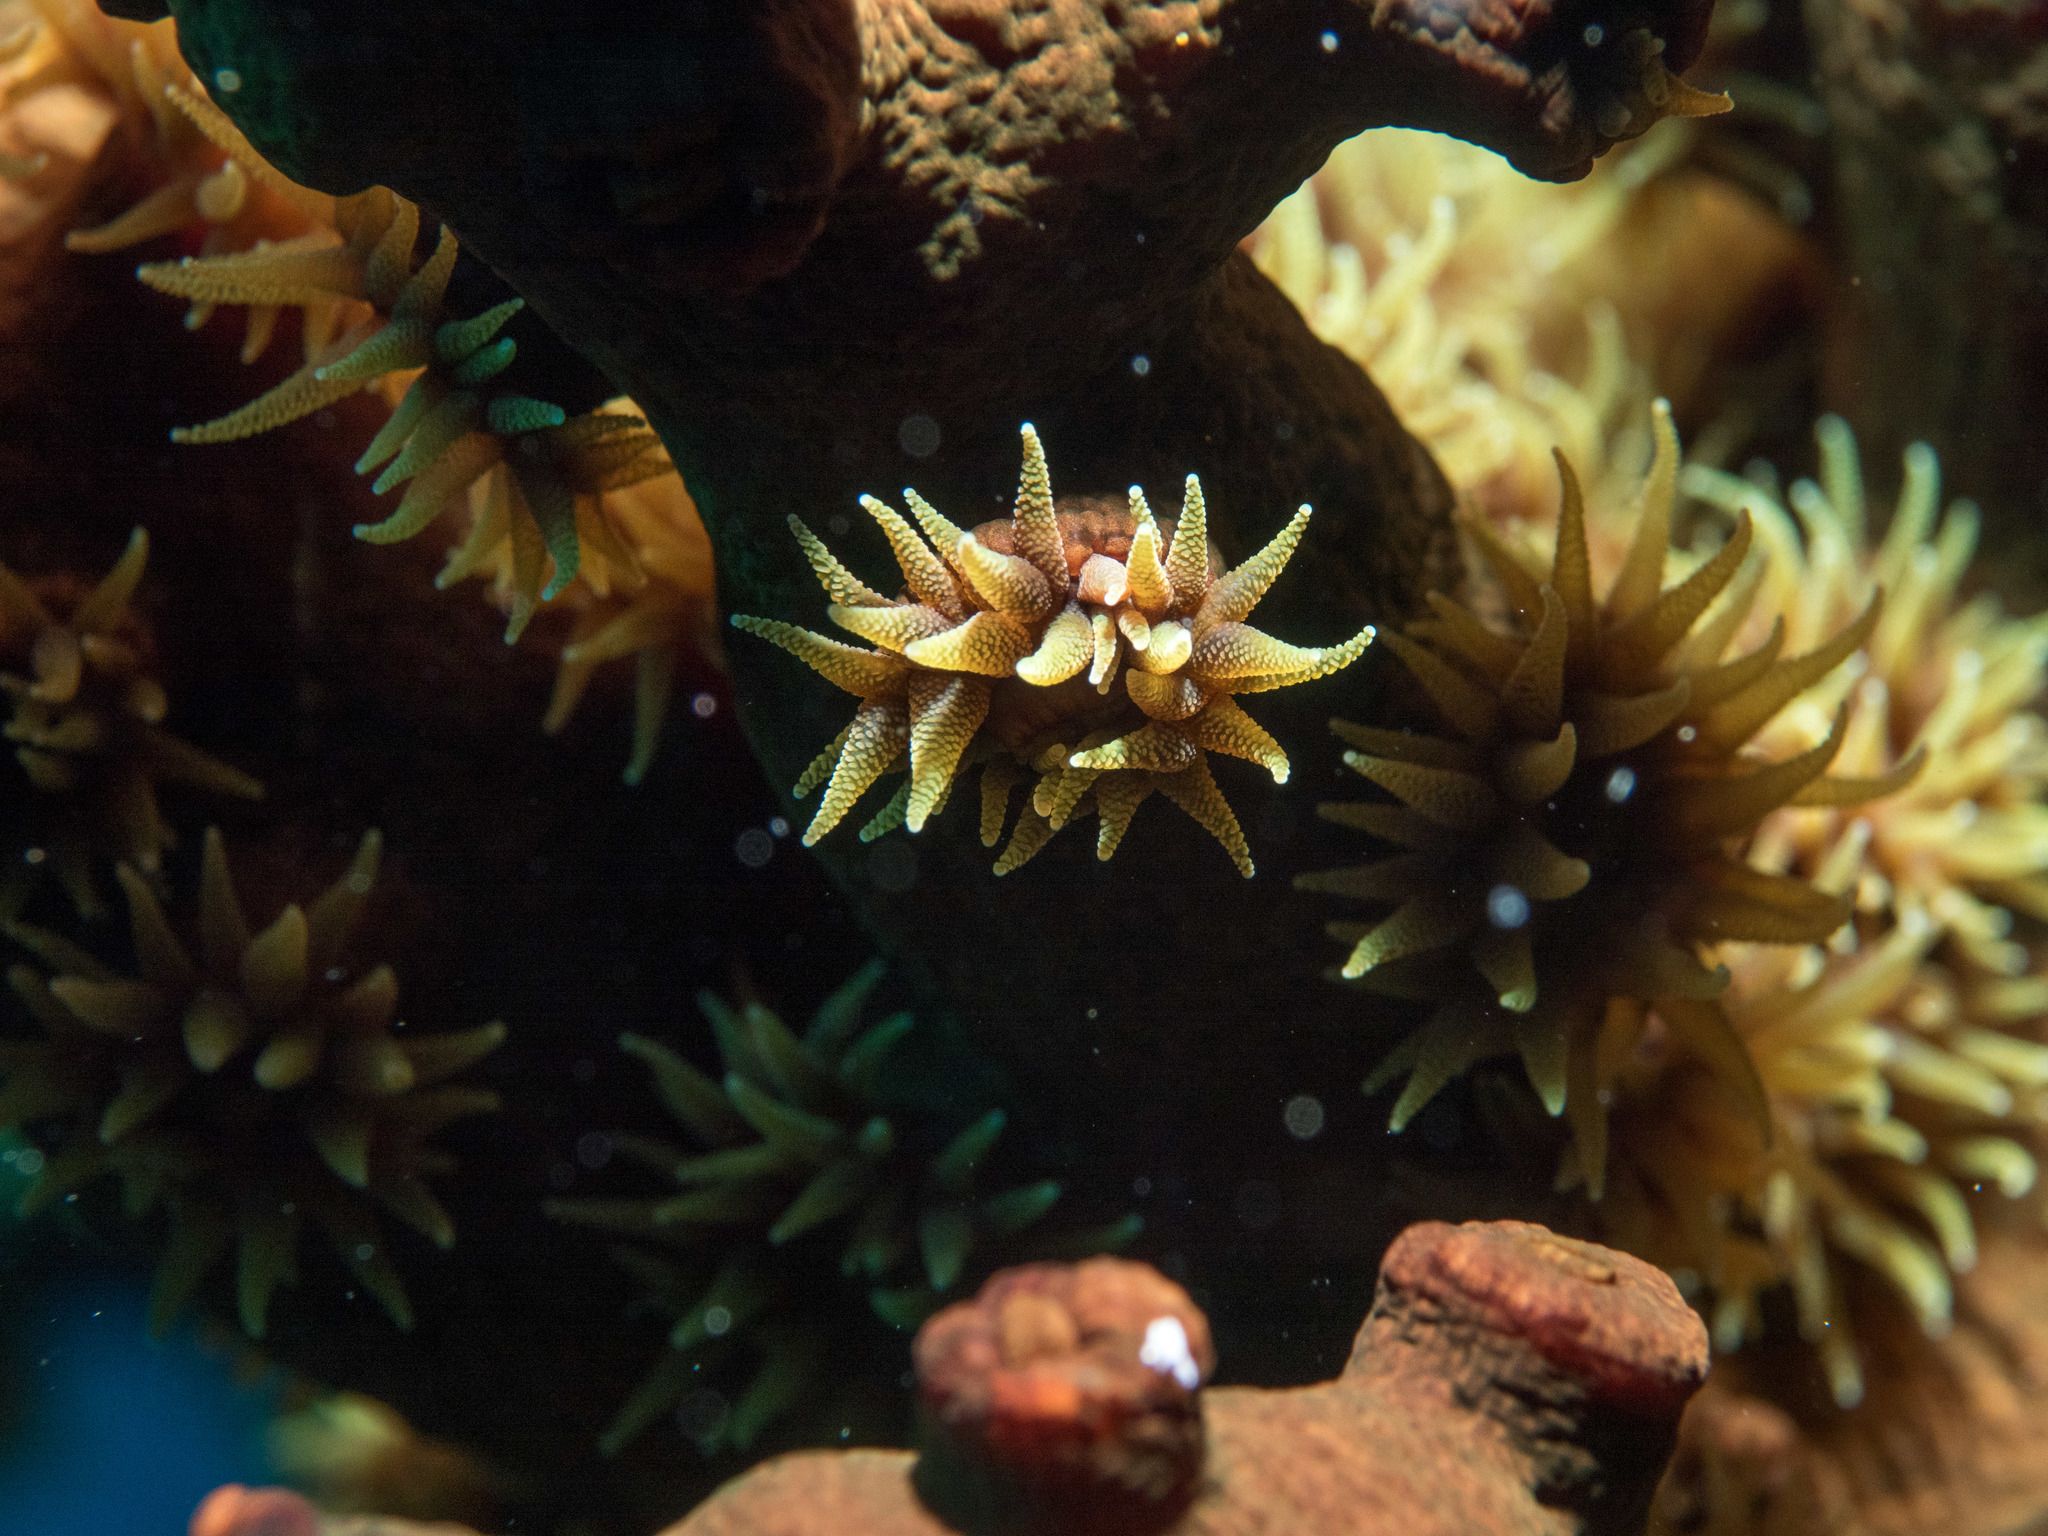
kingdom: Animalia
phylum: Cnidaria
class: Anthozoa
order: Scleractinia
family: Dendrophylliidae
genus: Tubastraea
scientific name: Tubastraea micranthus
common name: Black sun coral
